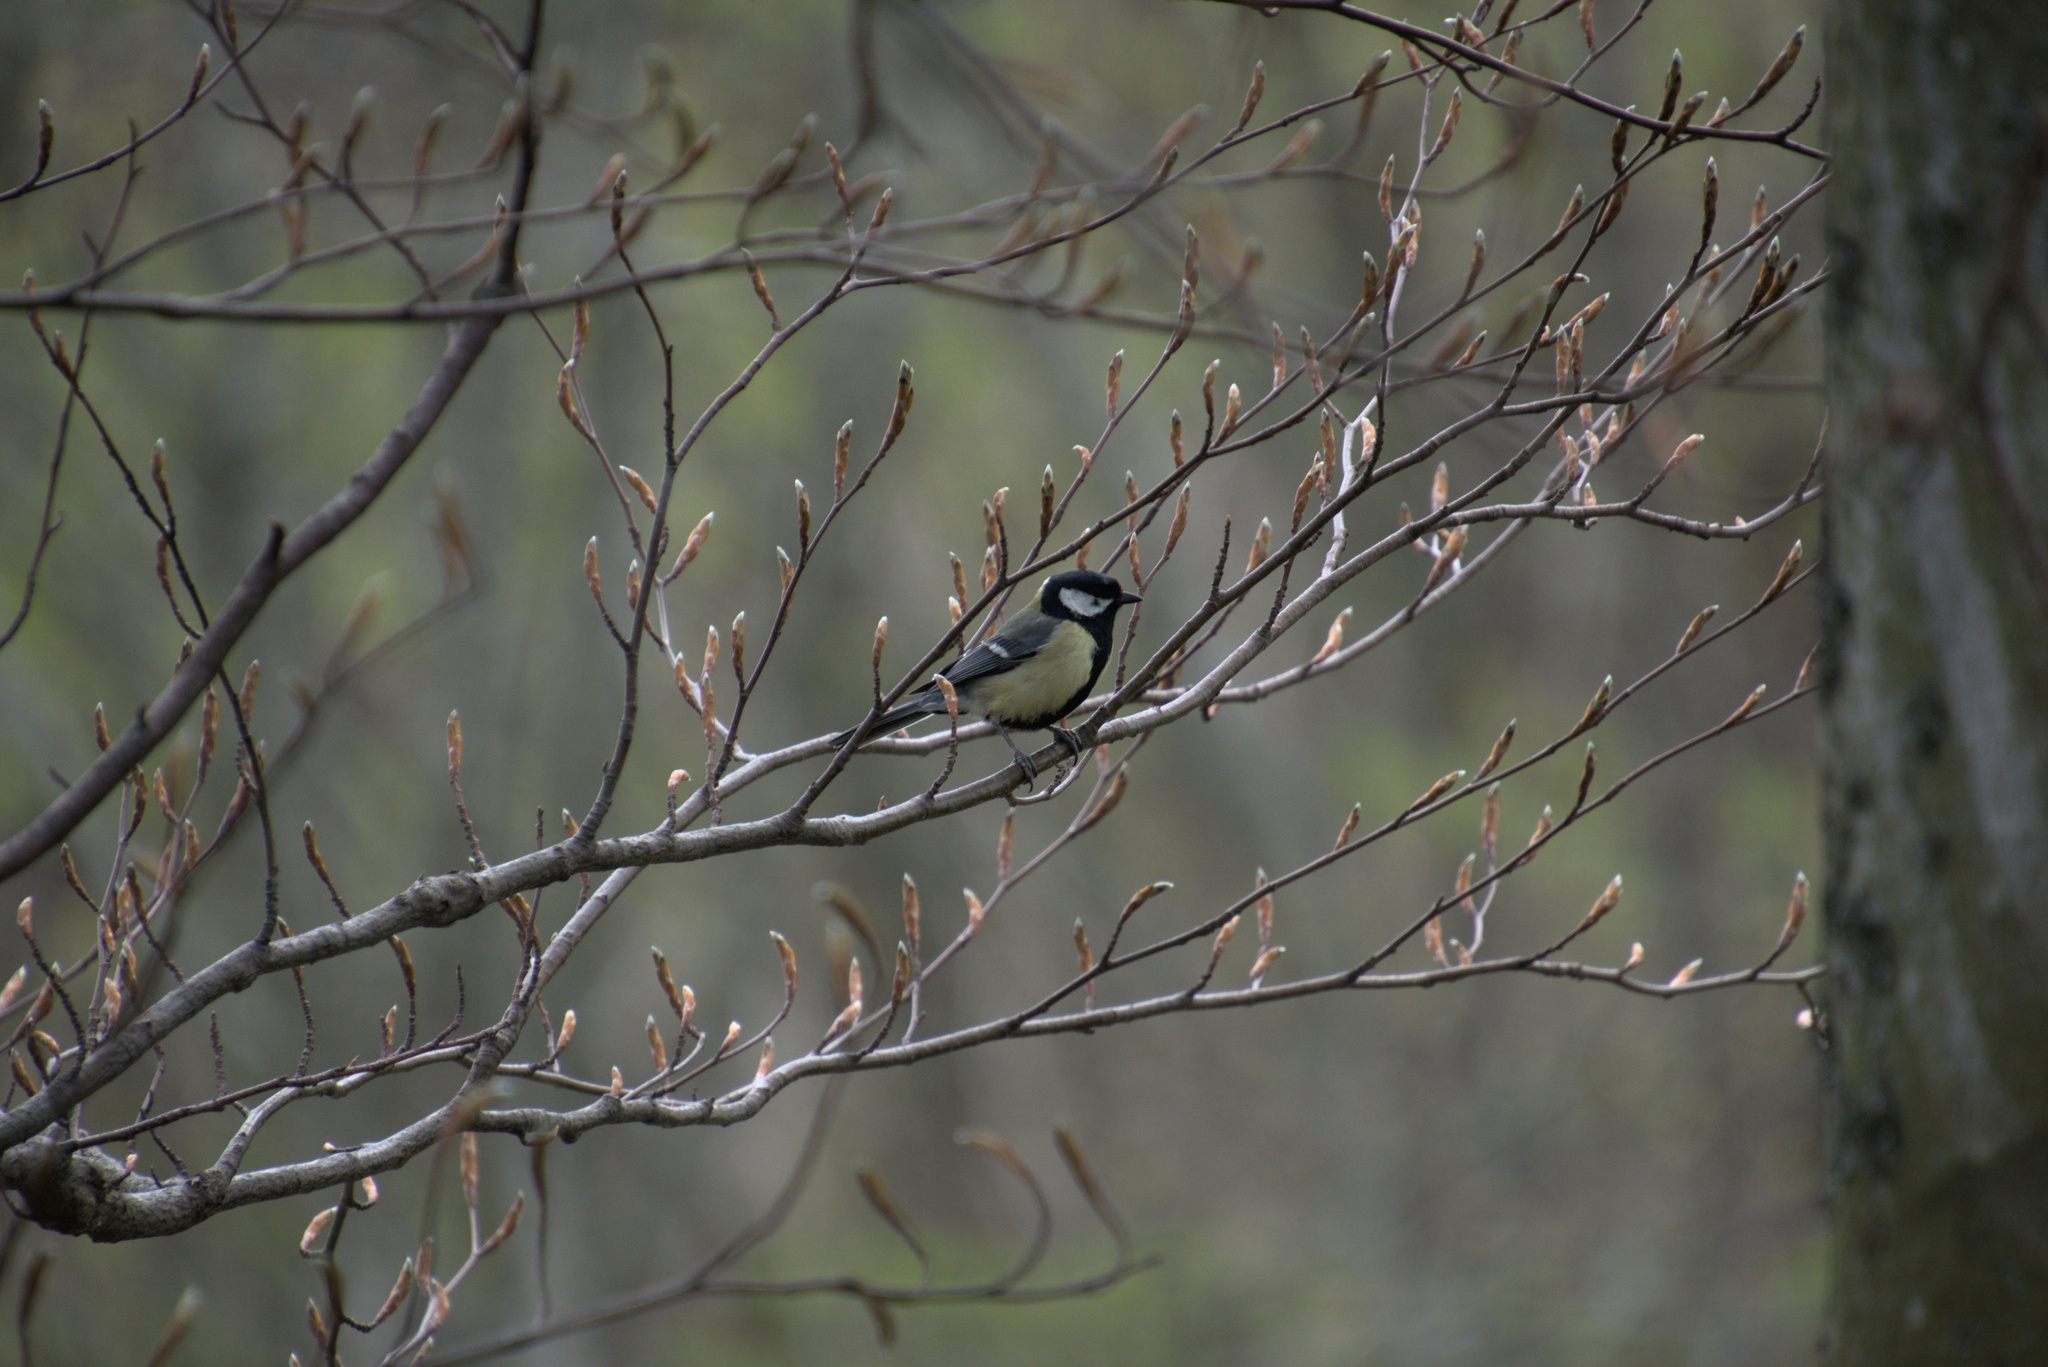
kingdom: Animalia
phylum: Chordata
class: Aves
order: Passeriformes
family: Paridae
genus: Parus
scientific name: Parus major
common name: Great tit
